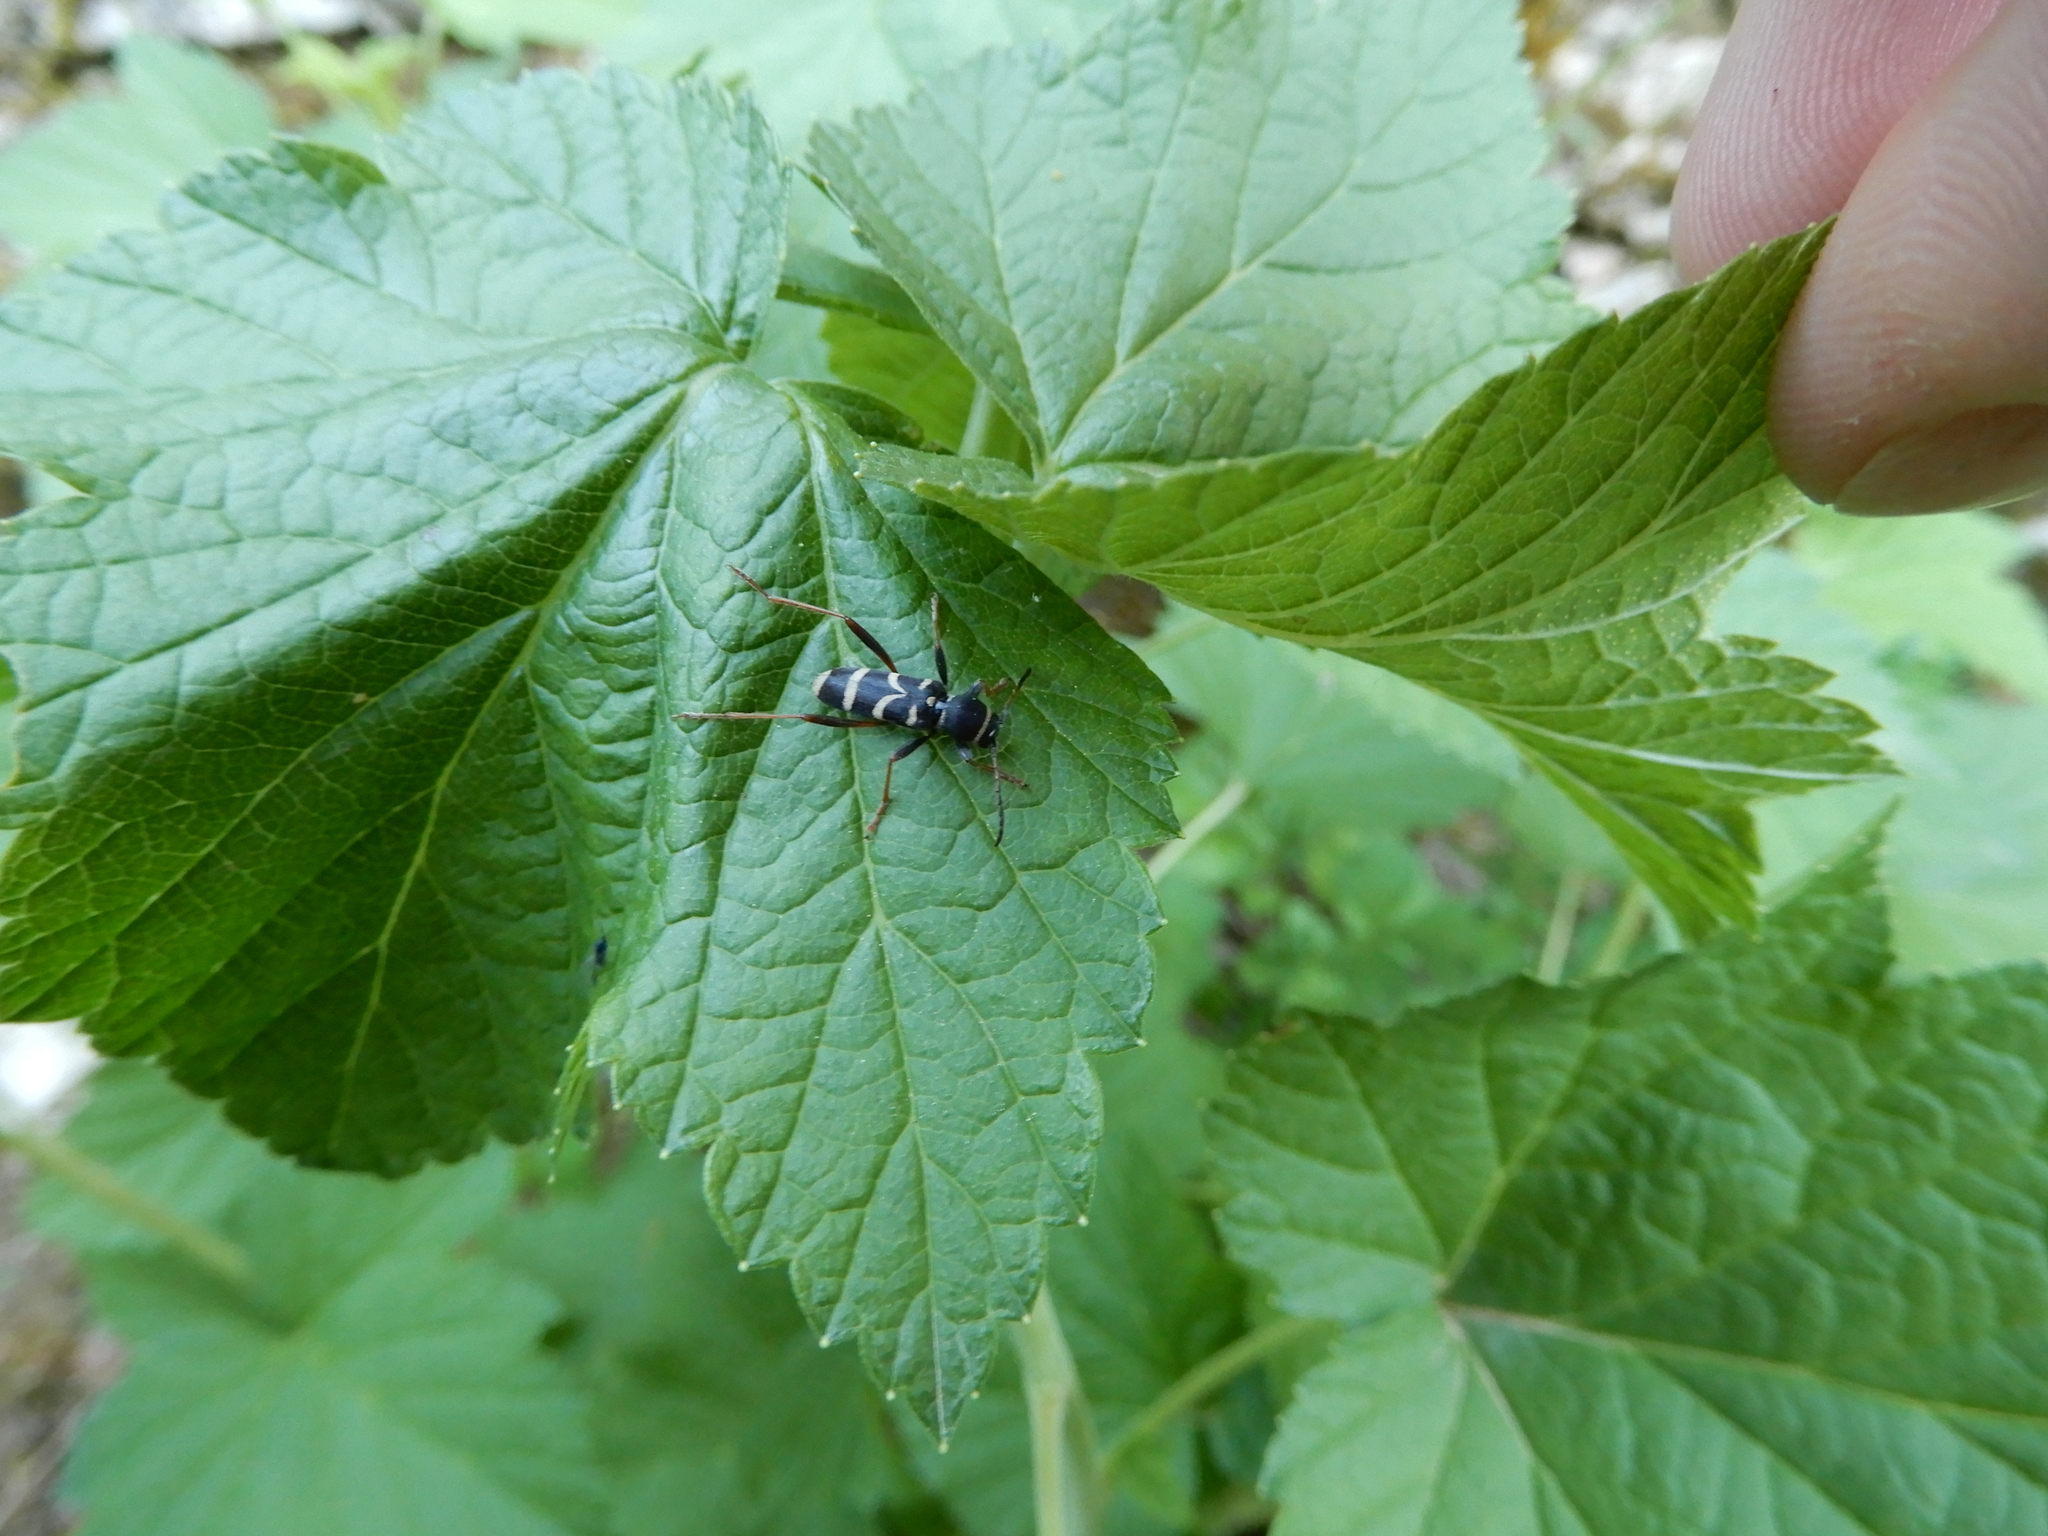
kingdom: Animalia
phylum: Arthropoda
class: Insecta
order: Coleoptera
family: Cerambycidae
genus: Clytus
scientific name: Clytus arietis
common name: Wasp beetle
